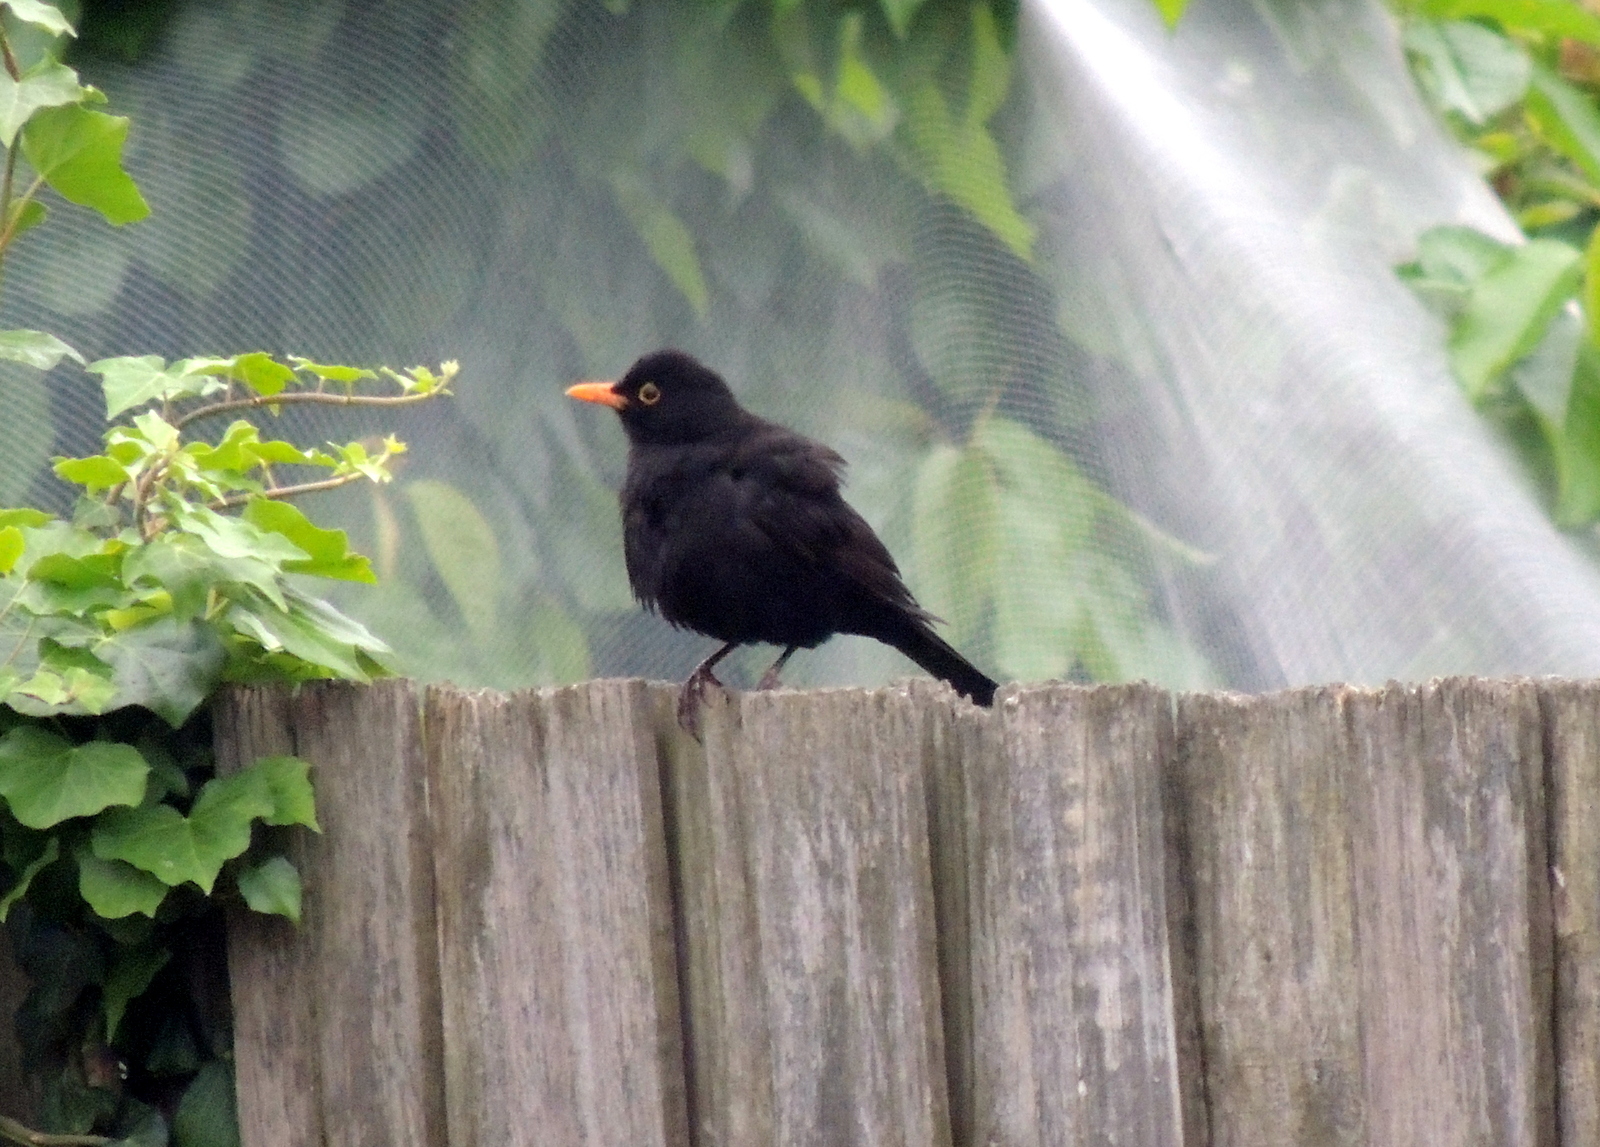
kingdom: Animalia
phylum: Chordata
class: Aves
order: Passeriformes
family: Turdidae
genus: Turdus
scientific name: Turdus merula
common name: Common blackbird
